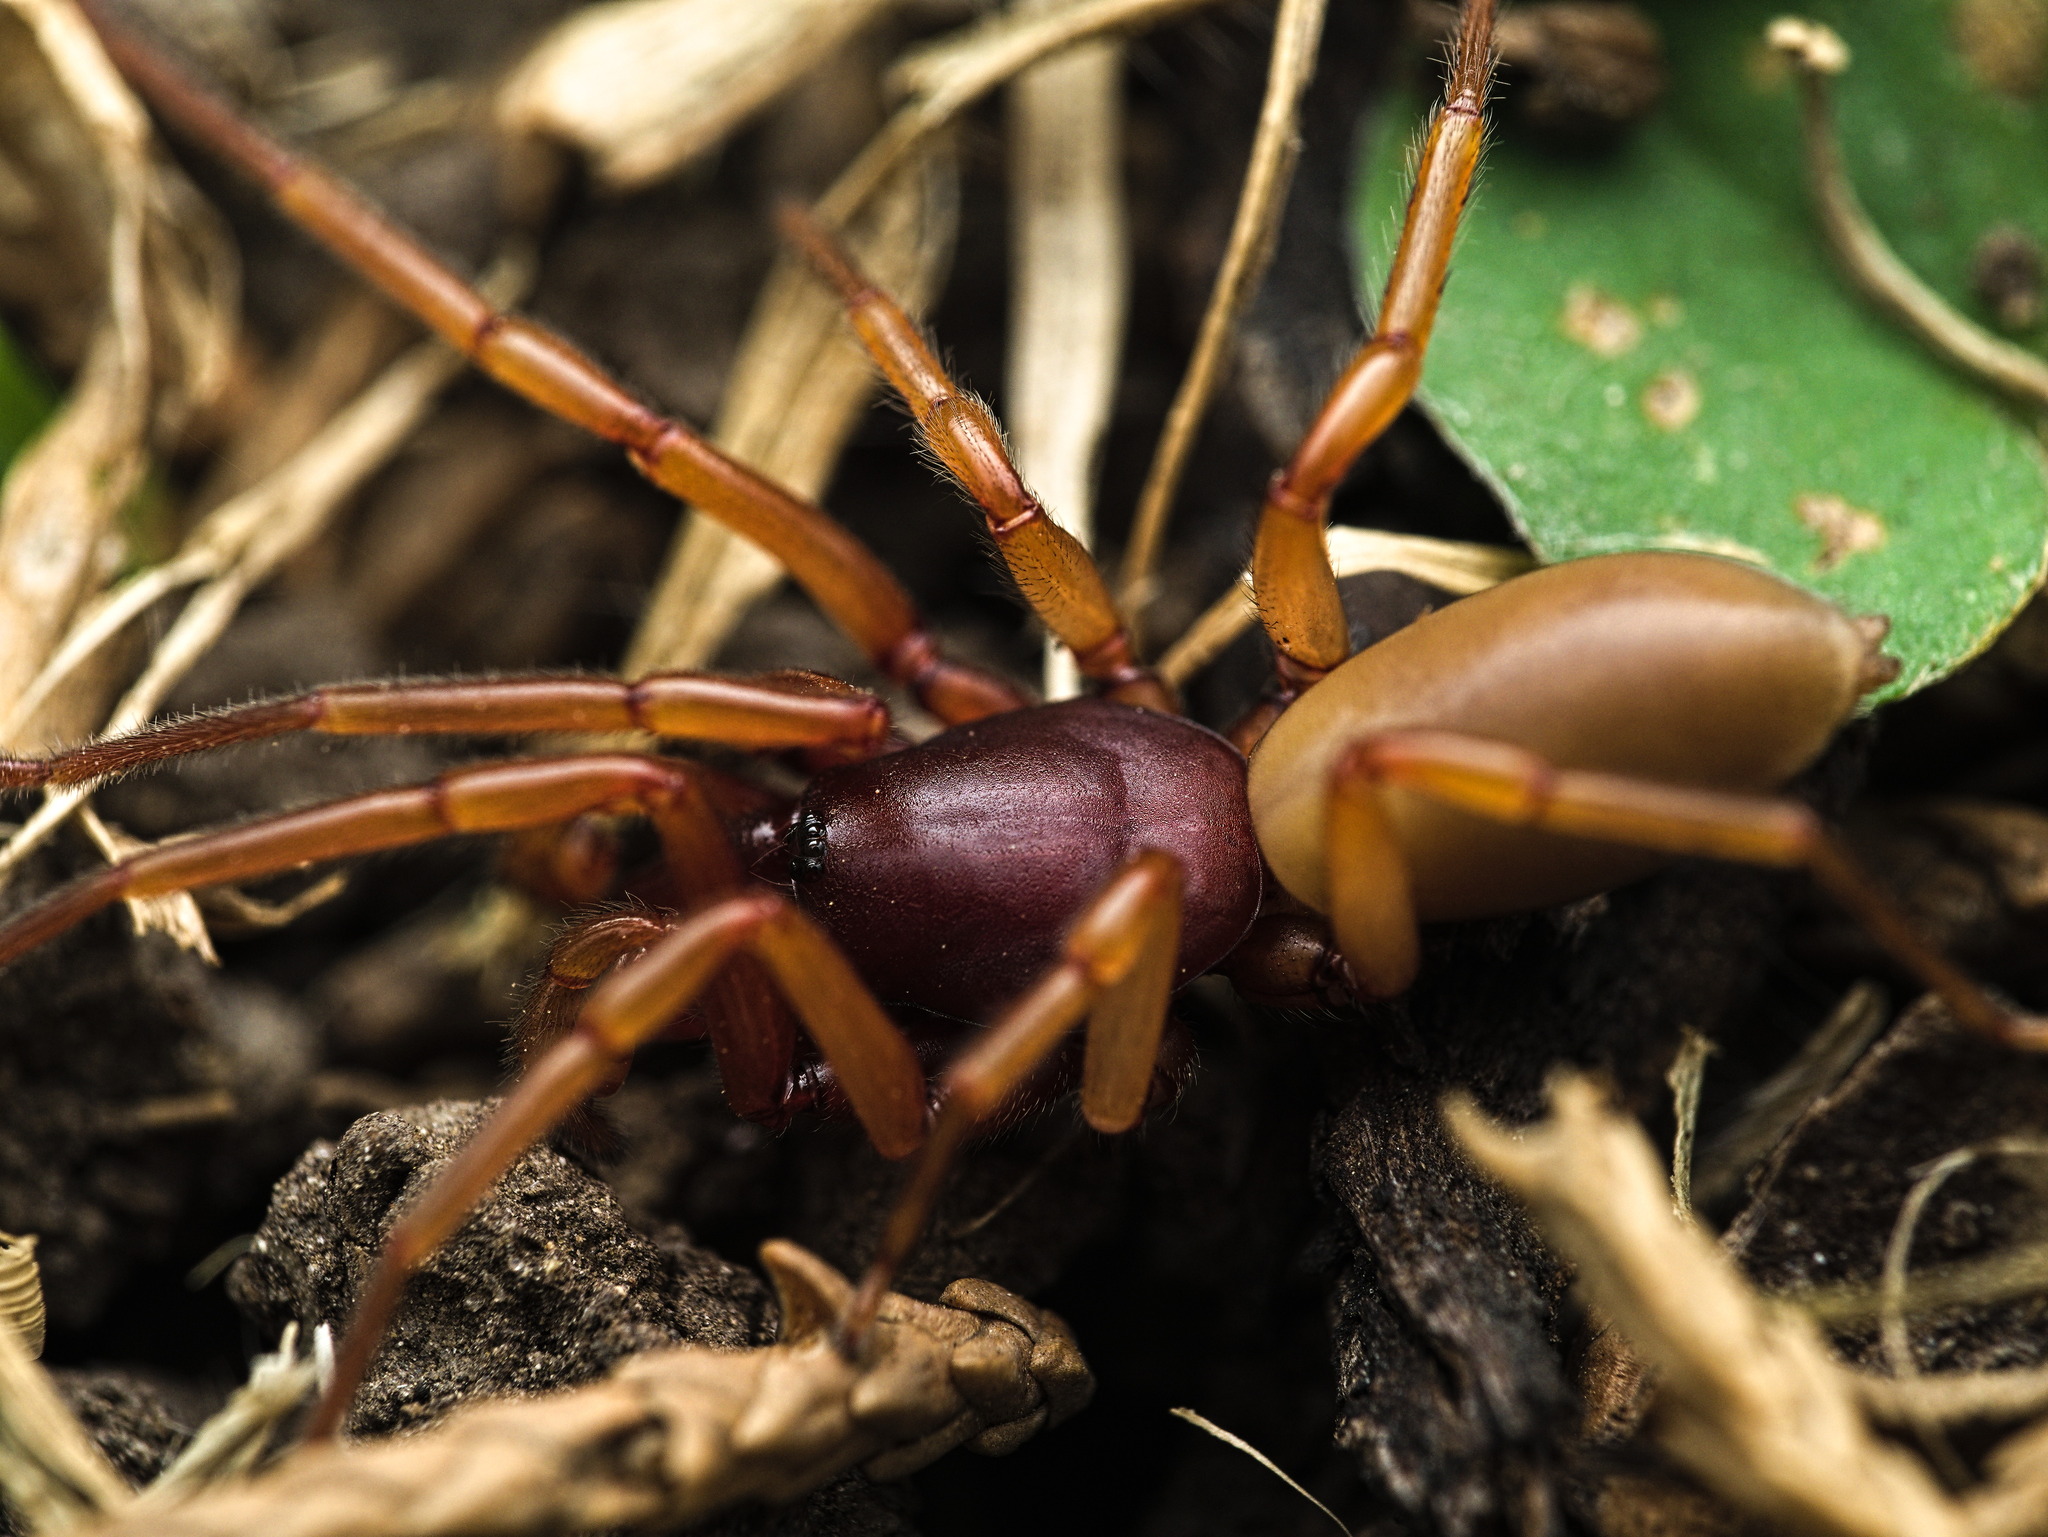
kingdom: Animalia
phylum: Arthropoda
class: Arachnida
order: Araneae
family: Dysderidae
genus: Dysdera
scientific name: Dysdera crocata
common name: Woodlouse spider
